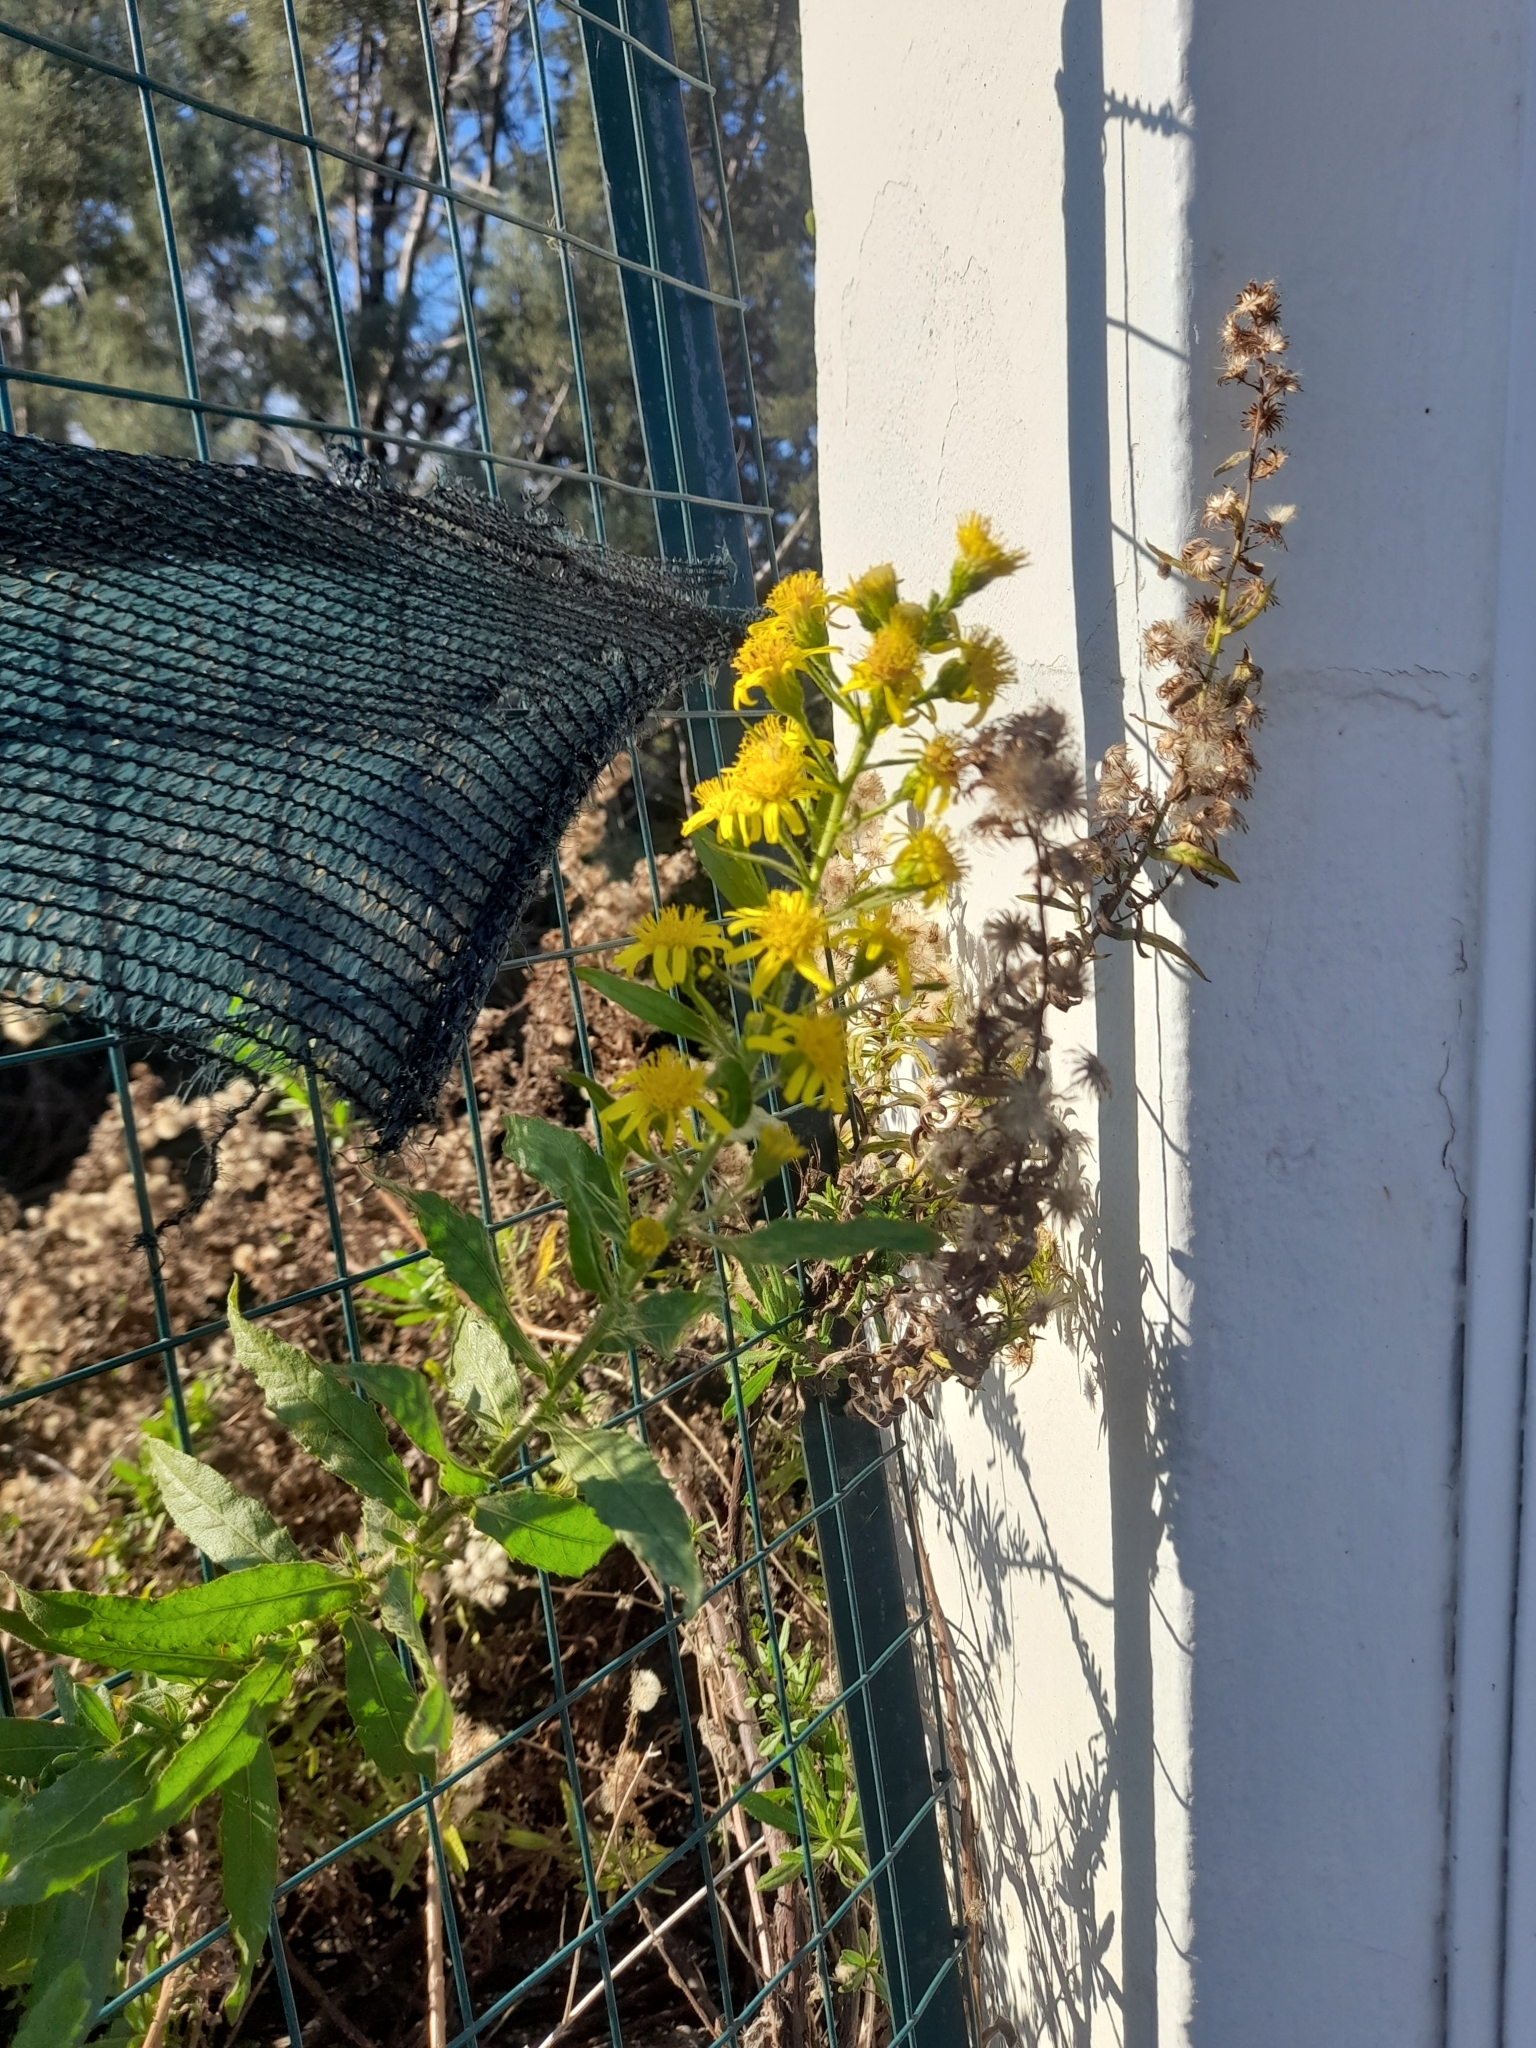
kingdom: Plantae
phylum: Tracheophyta
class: Magnoliopsida
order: Asterales
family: Asteraceae
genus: Dittrichia
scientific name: Dittrichia viscosa
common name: Woody fleabane
